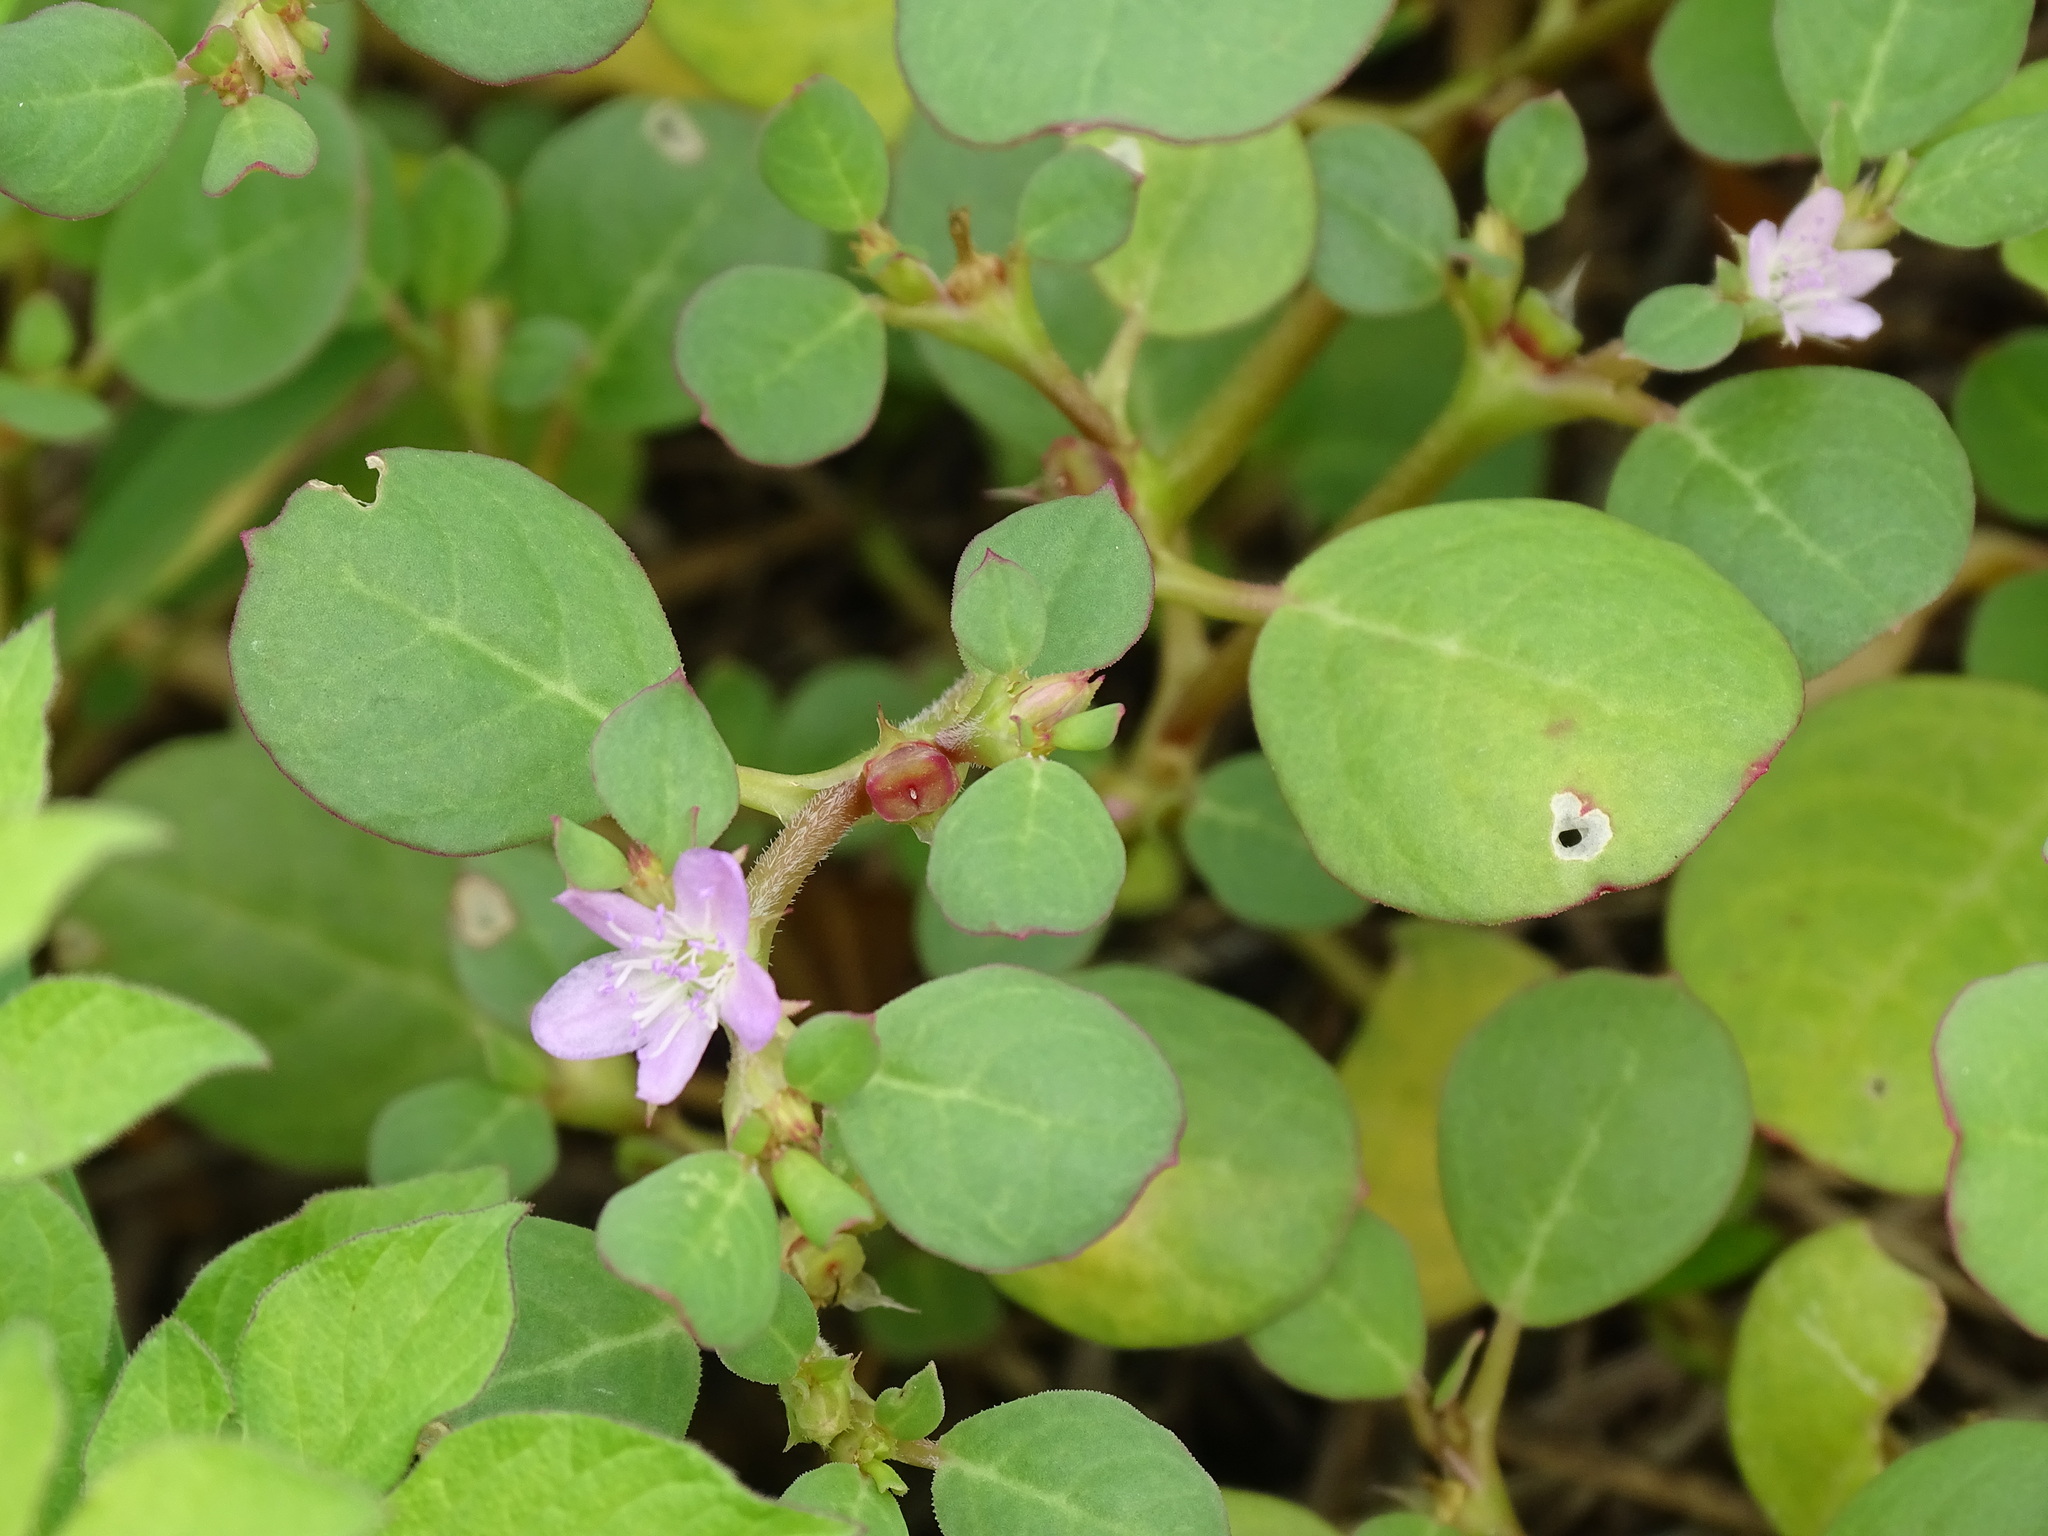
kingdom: Plantae
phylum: Tracheophyta
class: Magnoliopsida
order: Caryophyllales
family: Aizoaceae
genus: Trianthema
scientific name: Trianthema portulacastrum
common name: Desert horsepurslane
